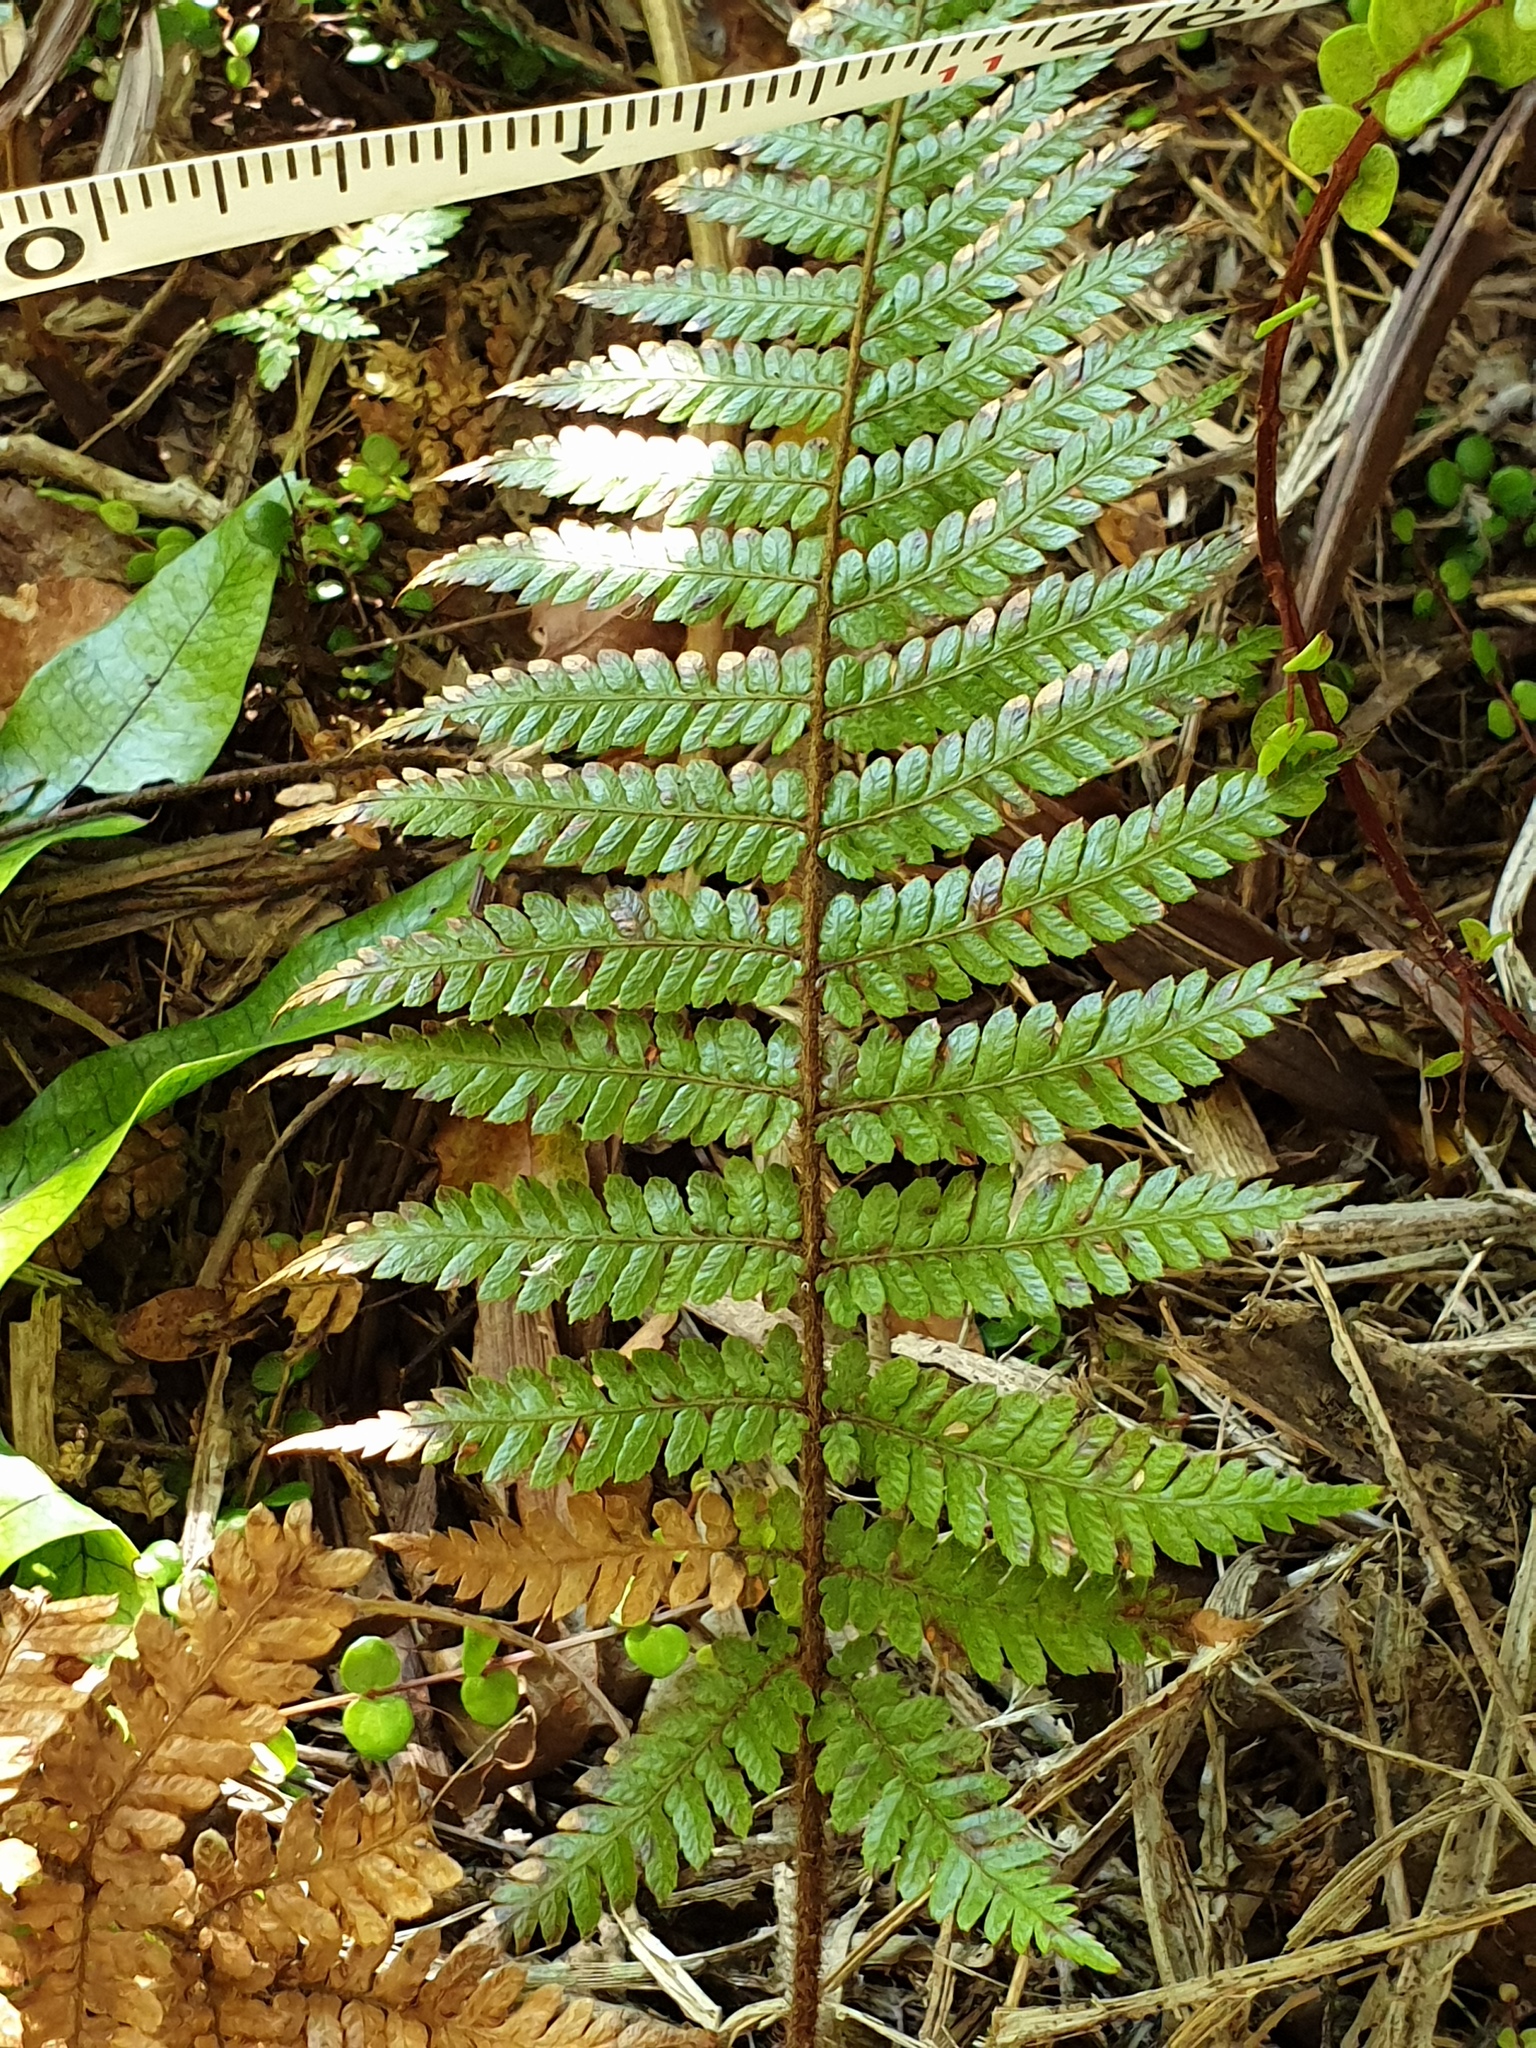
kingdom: Plantae
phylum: Tracheophyta
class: Polypodiopsida
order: Cyatheales
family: Dicksoniaceae
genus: Dicksonia
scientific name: Dicksonia squarrosa
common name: Hard treefern
